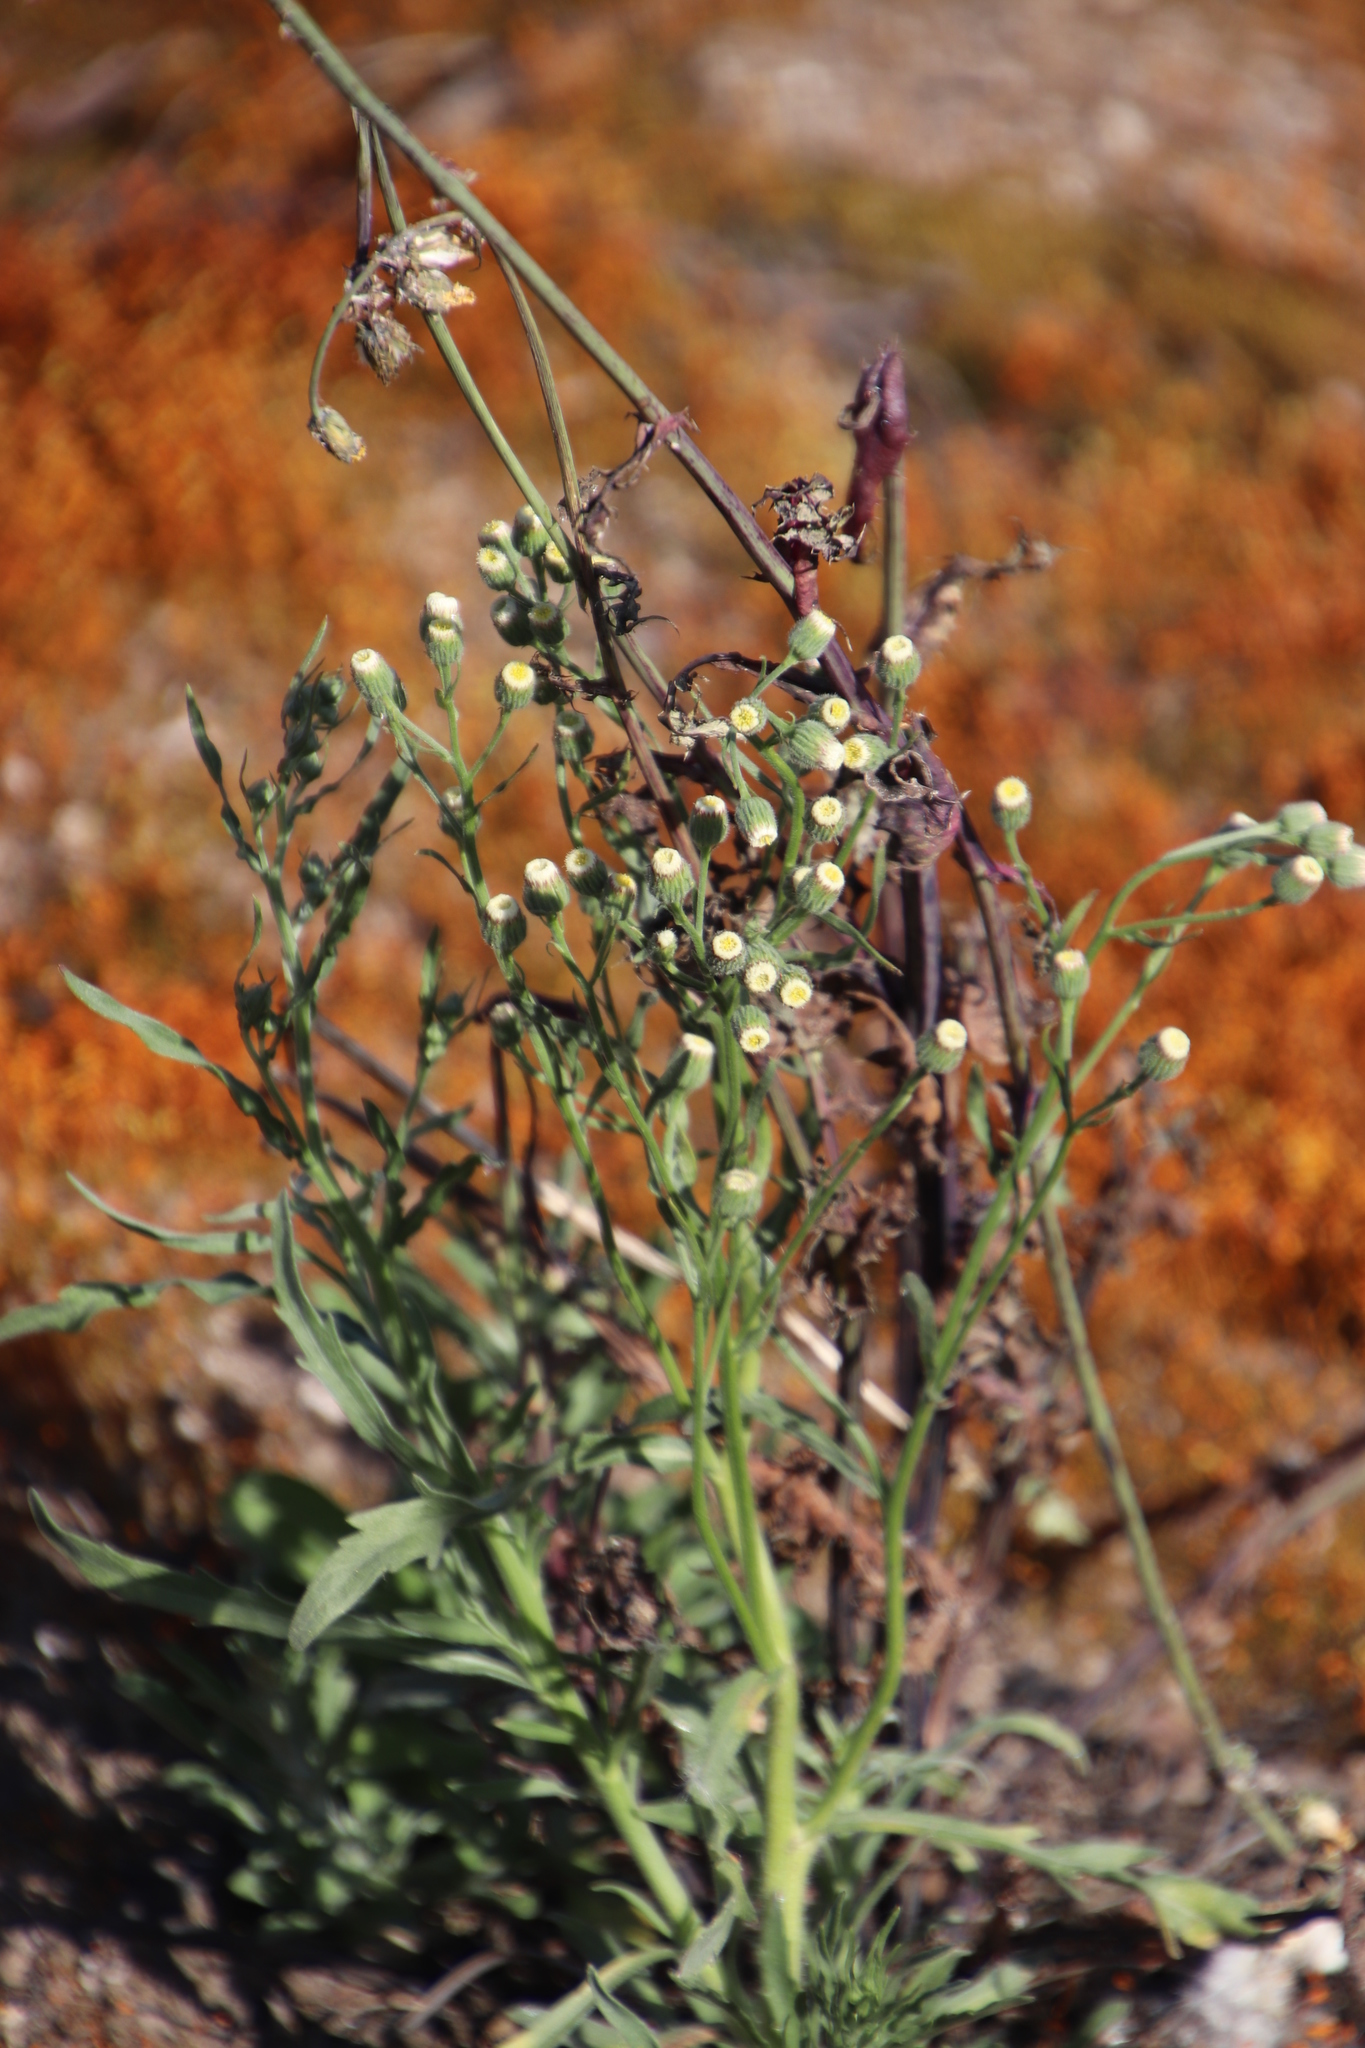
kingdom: Plantae
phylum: Tracheophyta
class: Magnoliopsida
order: Asterales
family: Asteraceae
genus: Erigeron
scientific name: Erigeron bonariensis
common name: Argentine fleabane
